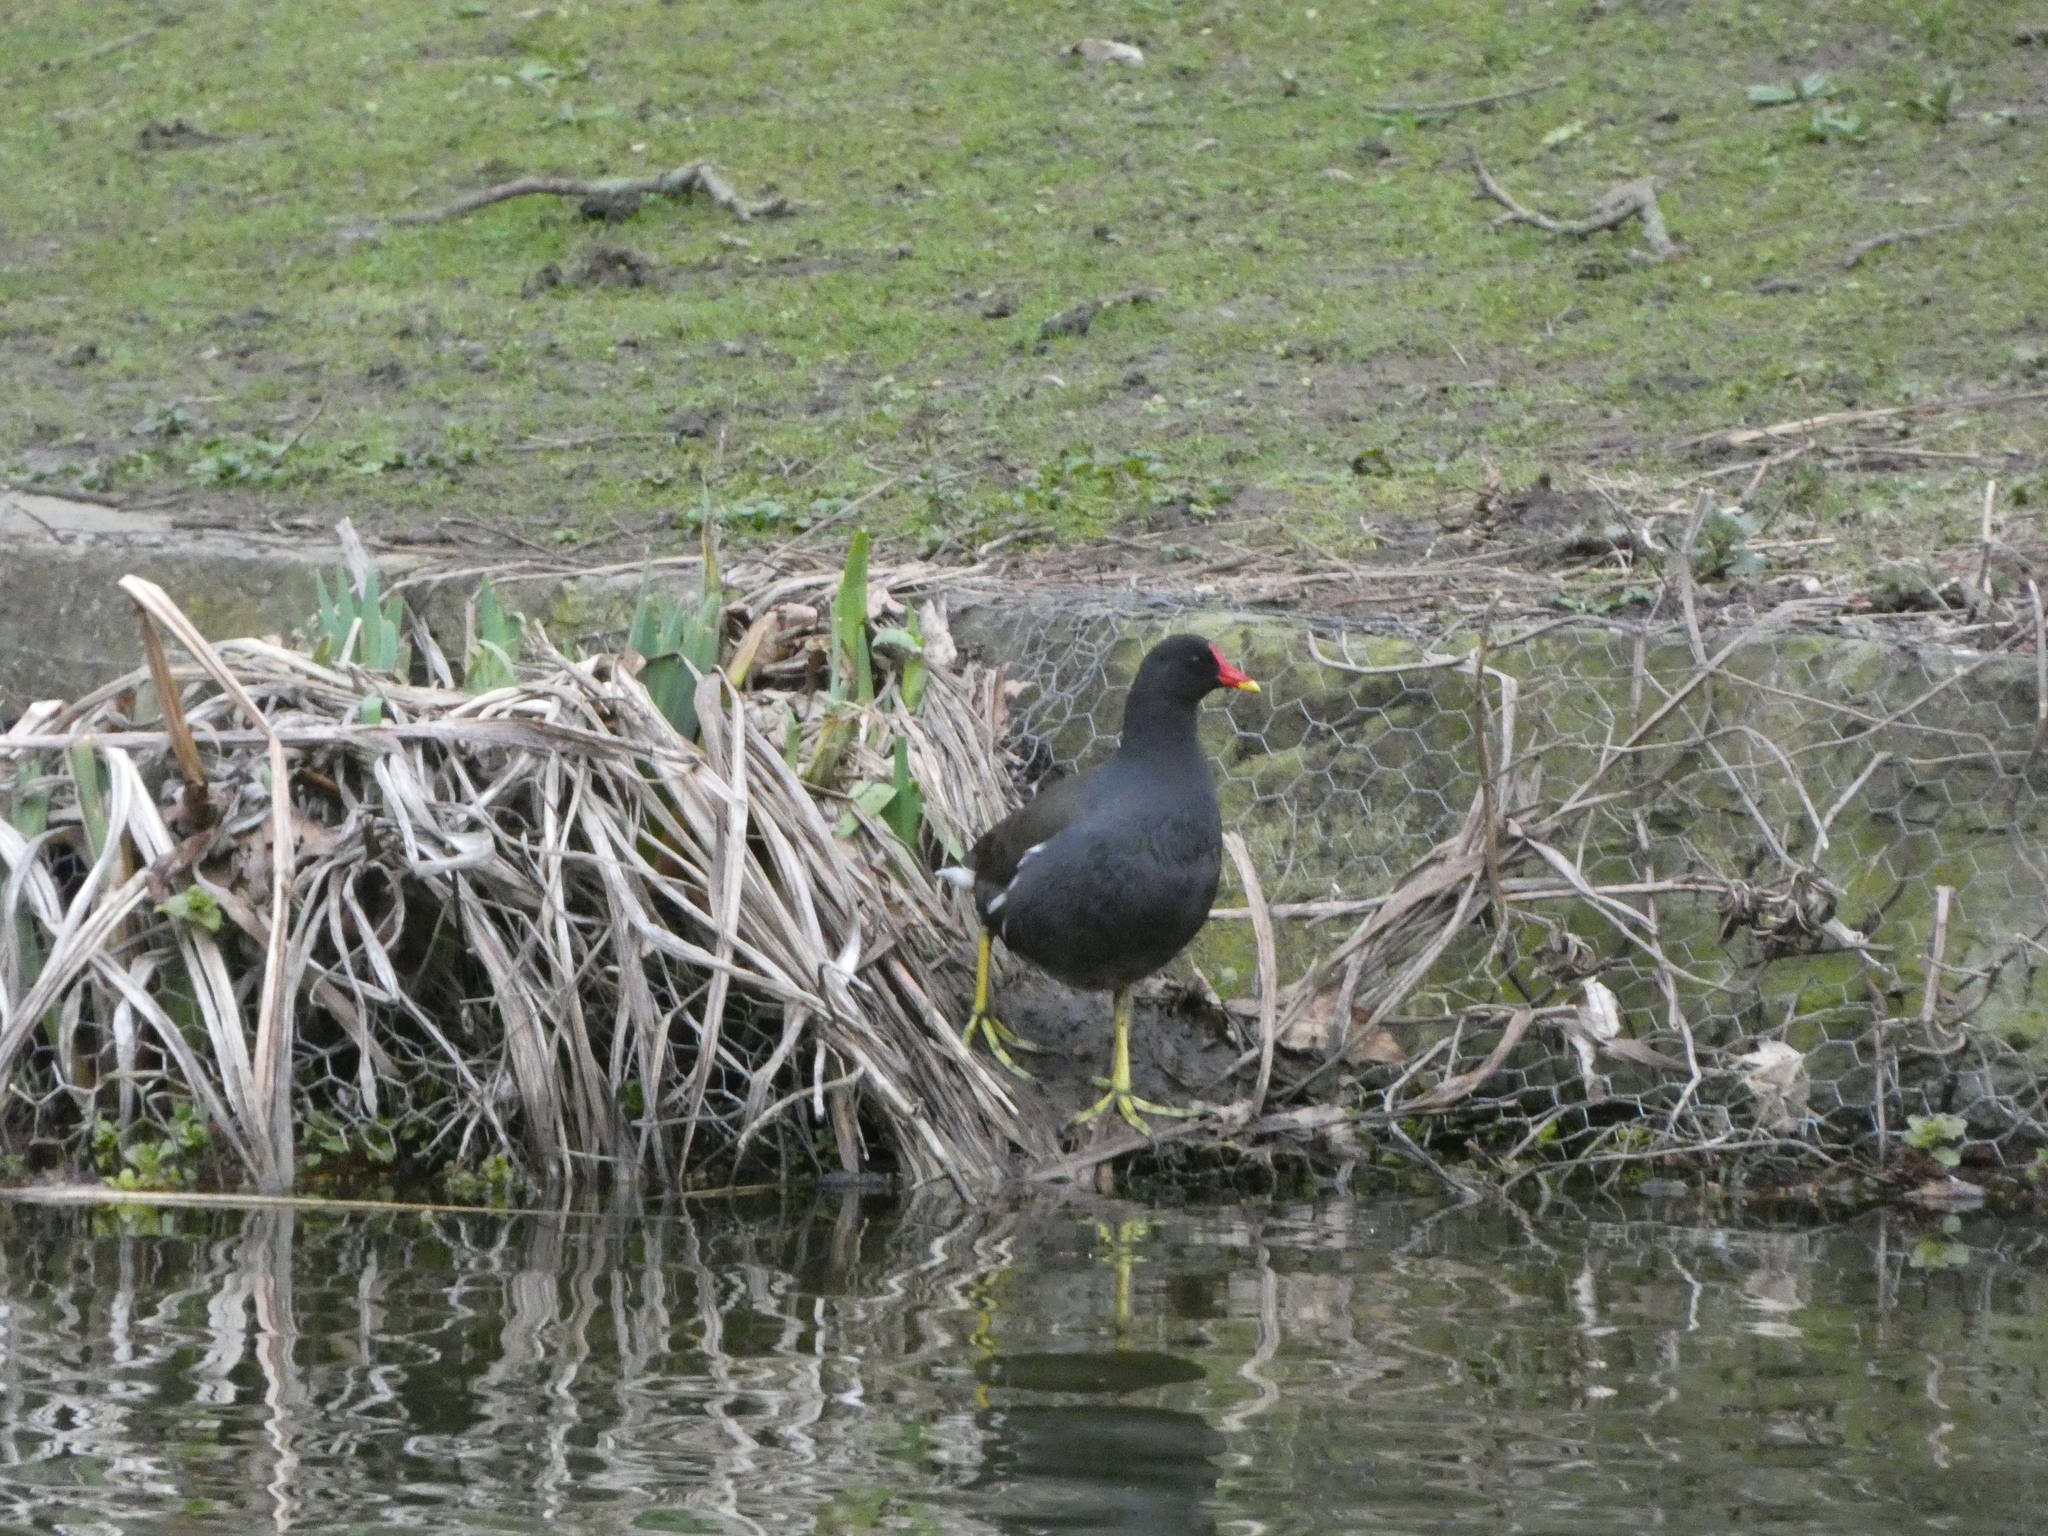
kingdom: Animalia
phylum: Chordata
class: Aves
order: Gruiformes
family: Rallidae
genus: Gallinula
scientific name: Gallinula chloropus
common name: Common moorhen
